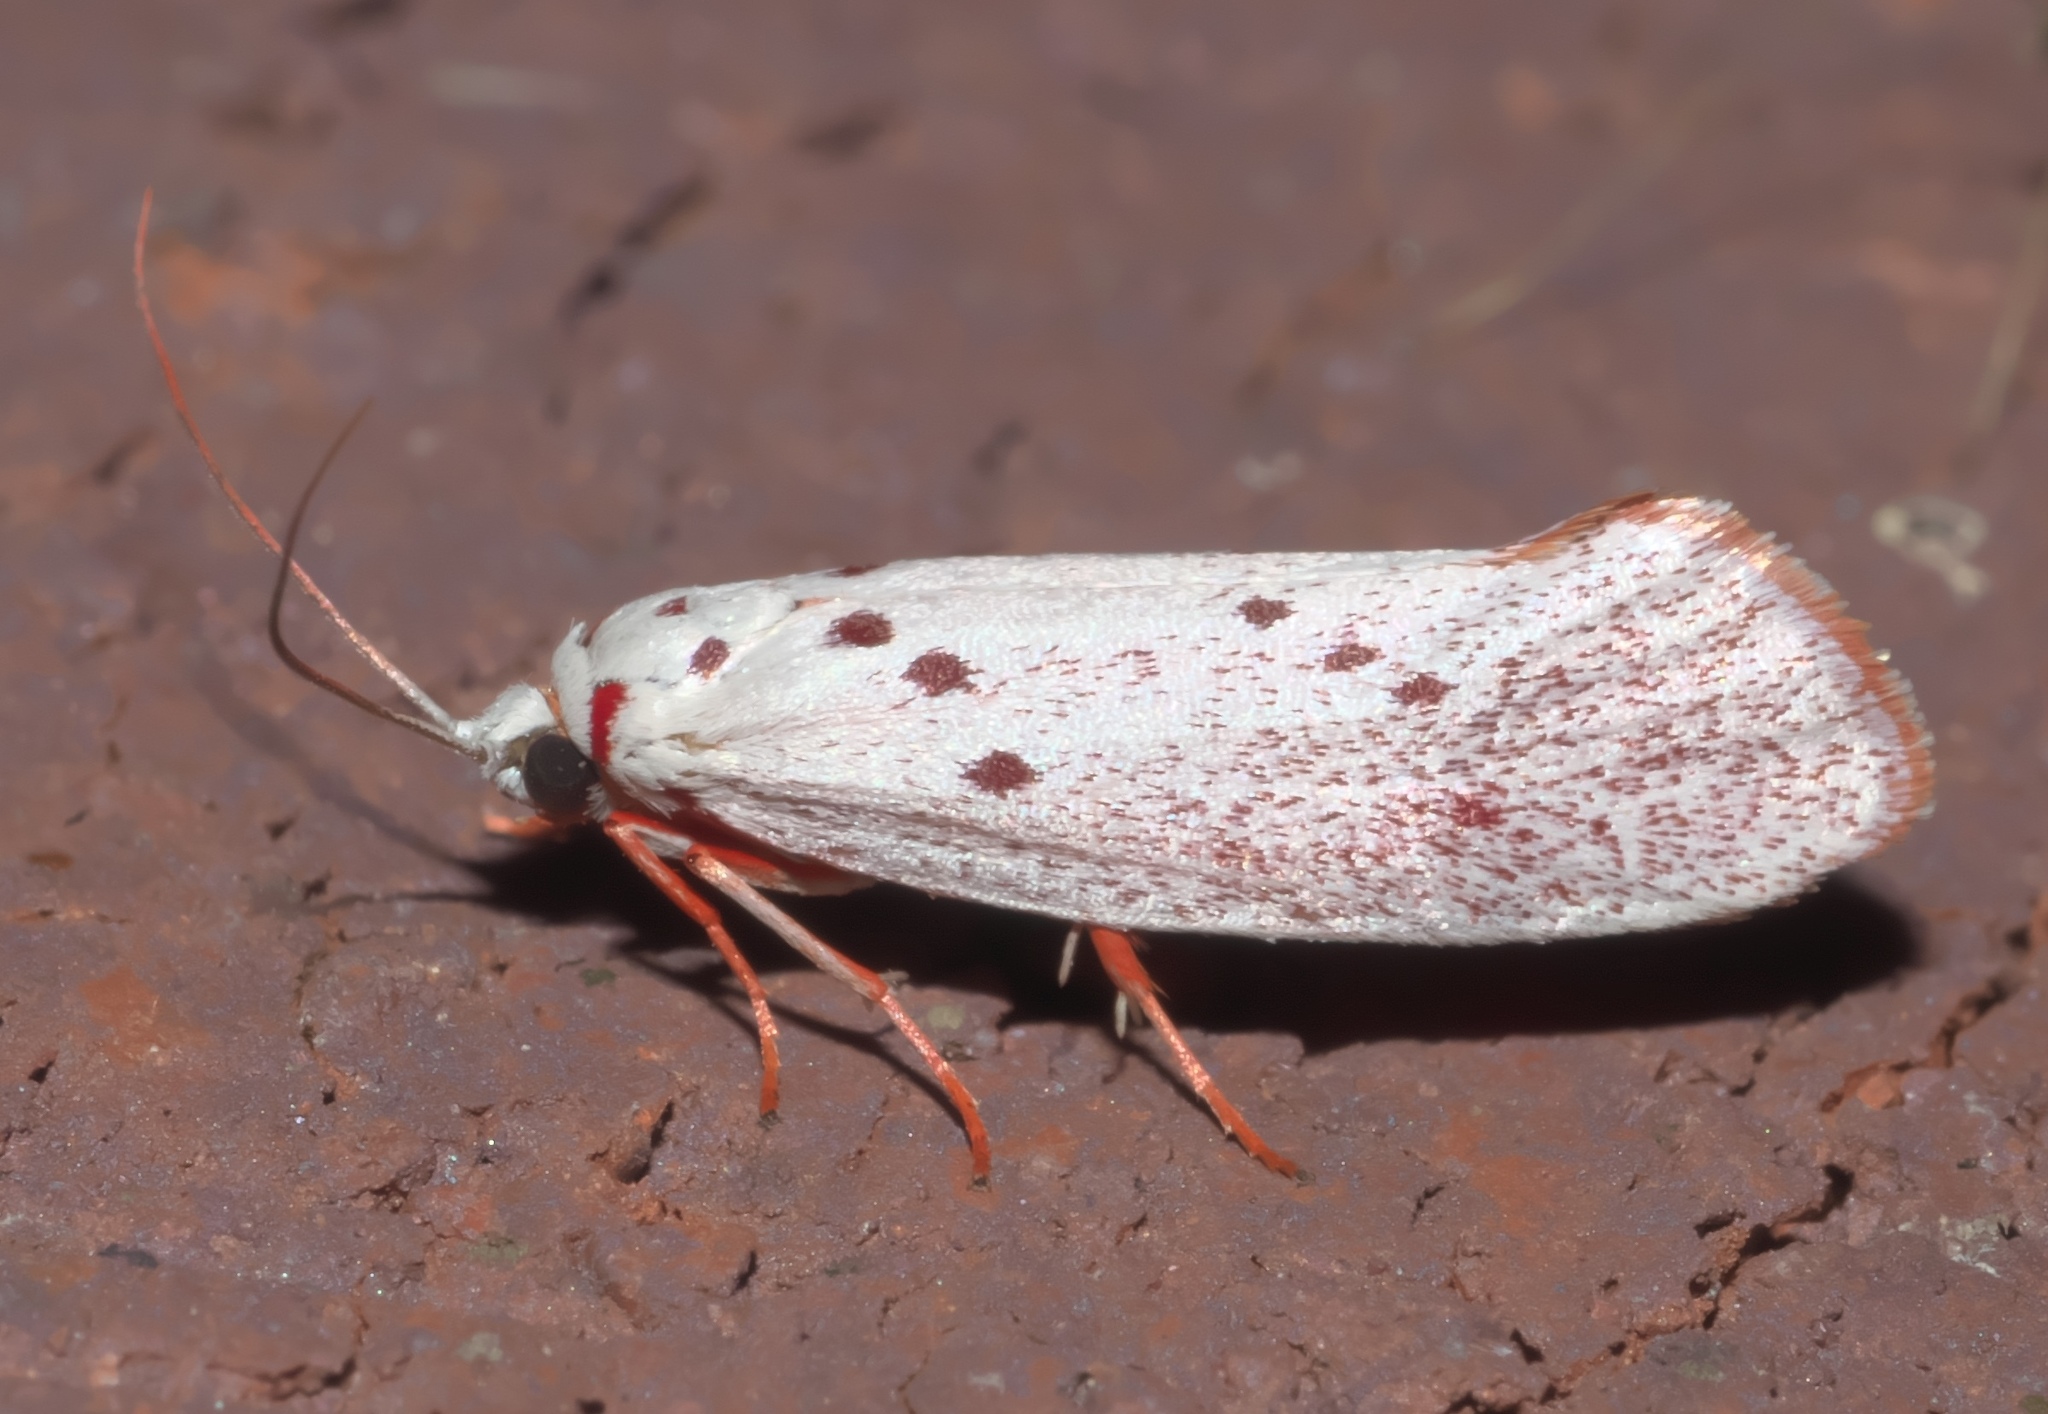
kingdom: Animalia
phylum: Arthropoda
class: Insecta
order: Lepidoptera
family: Lacturidae
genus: Lactura
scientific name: Lactura
